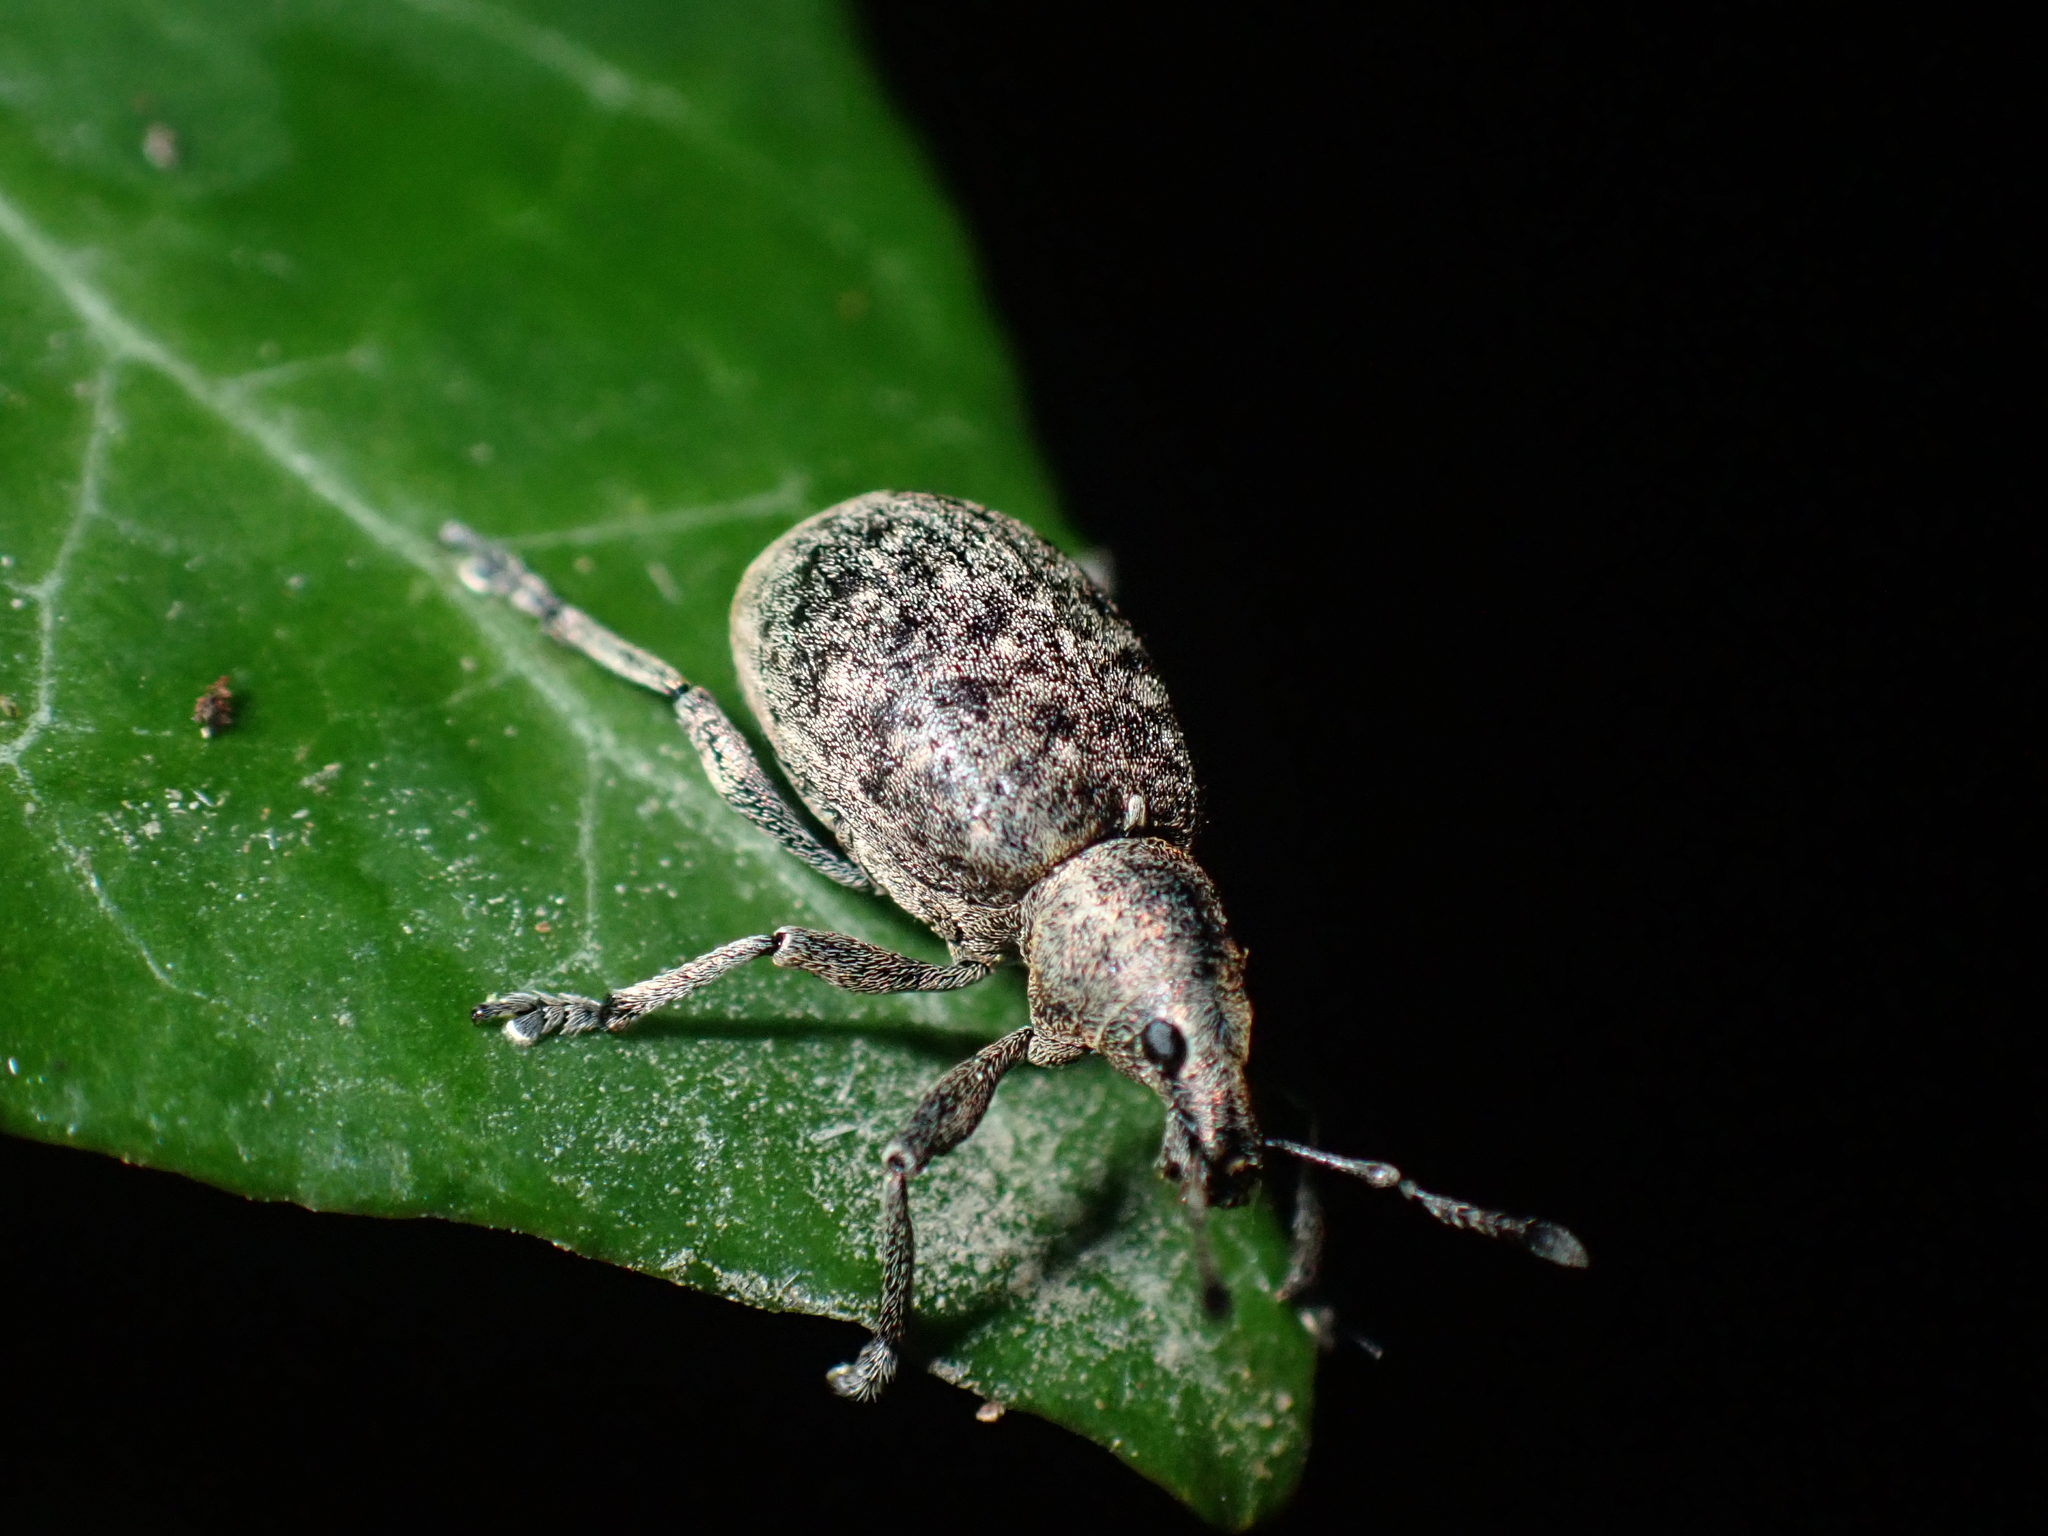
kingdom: Animalia
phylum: Arthropoda
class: Insecta
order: Coleoptera
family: Curculionidae
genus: Liophloeus
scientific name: Liophloeus tessulatus
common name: Weevil
